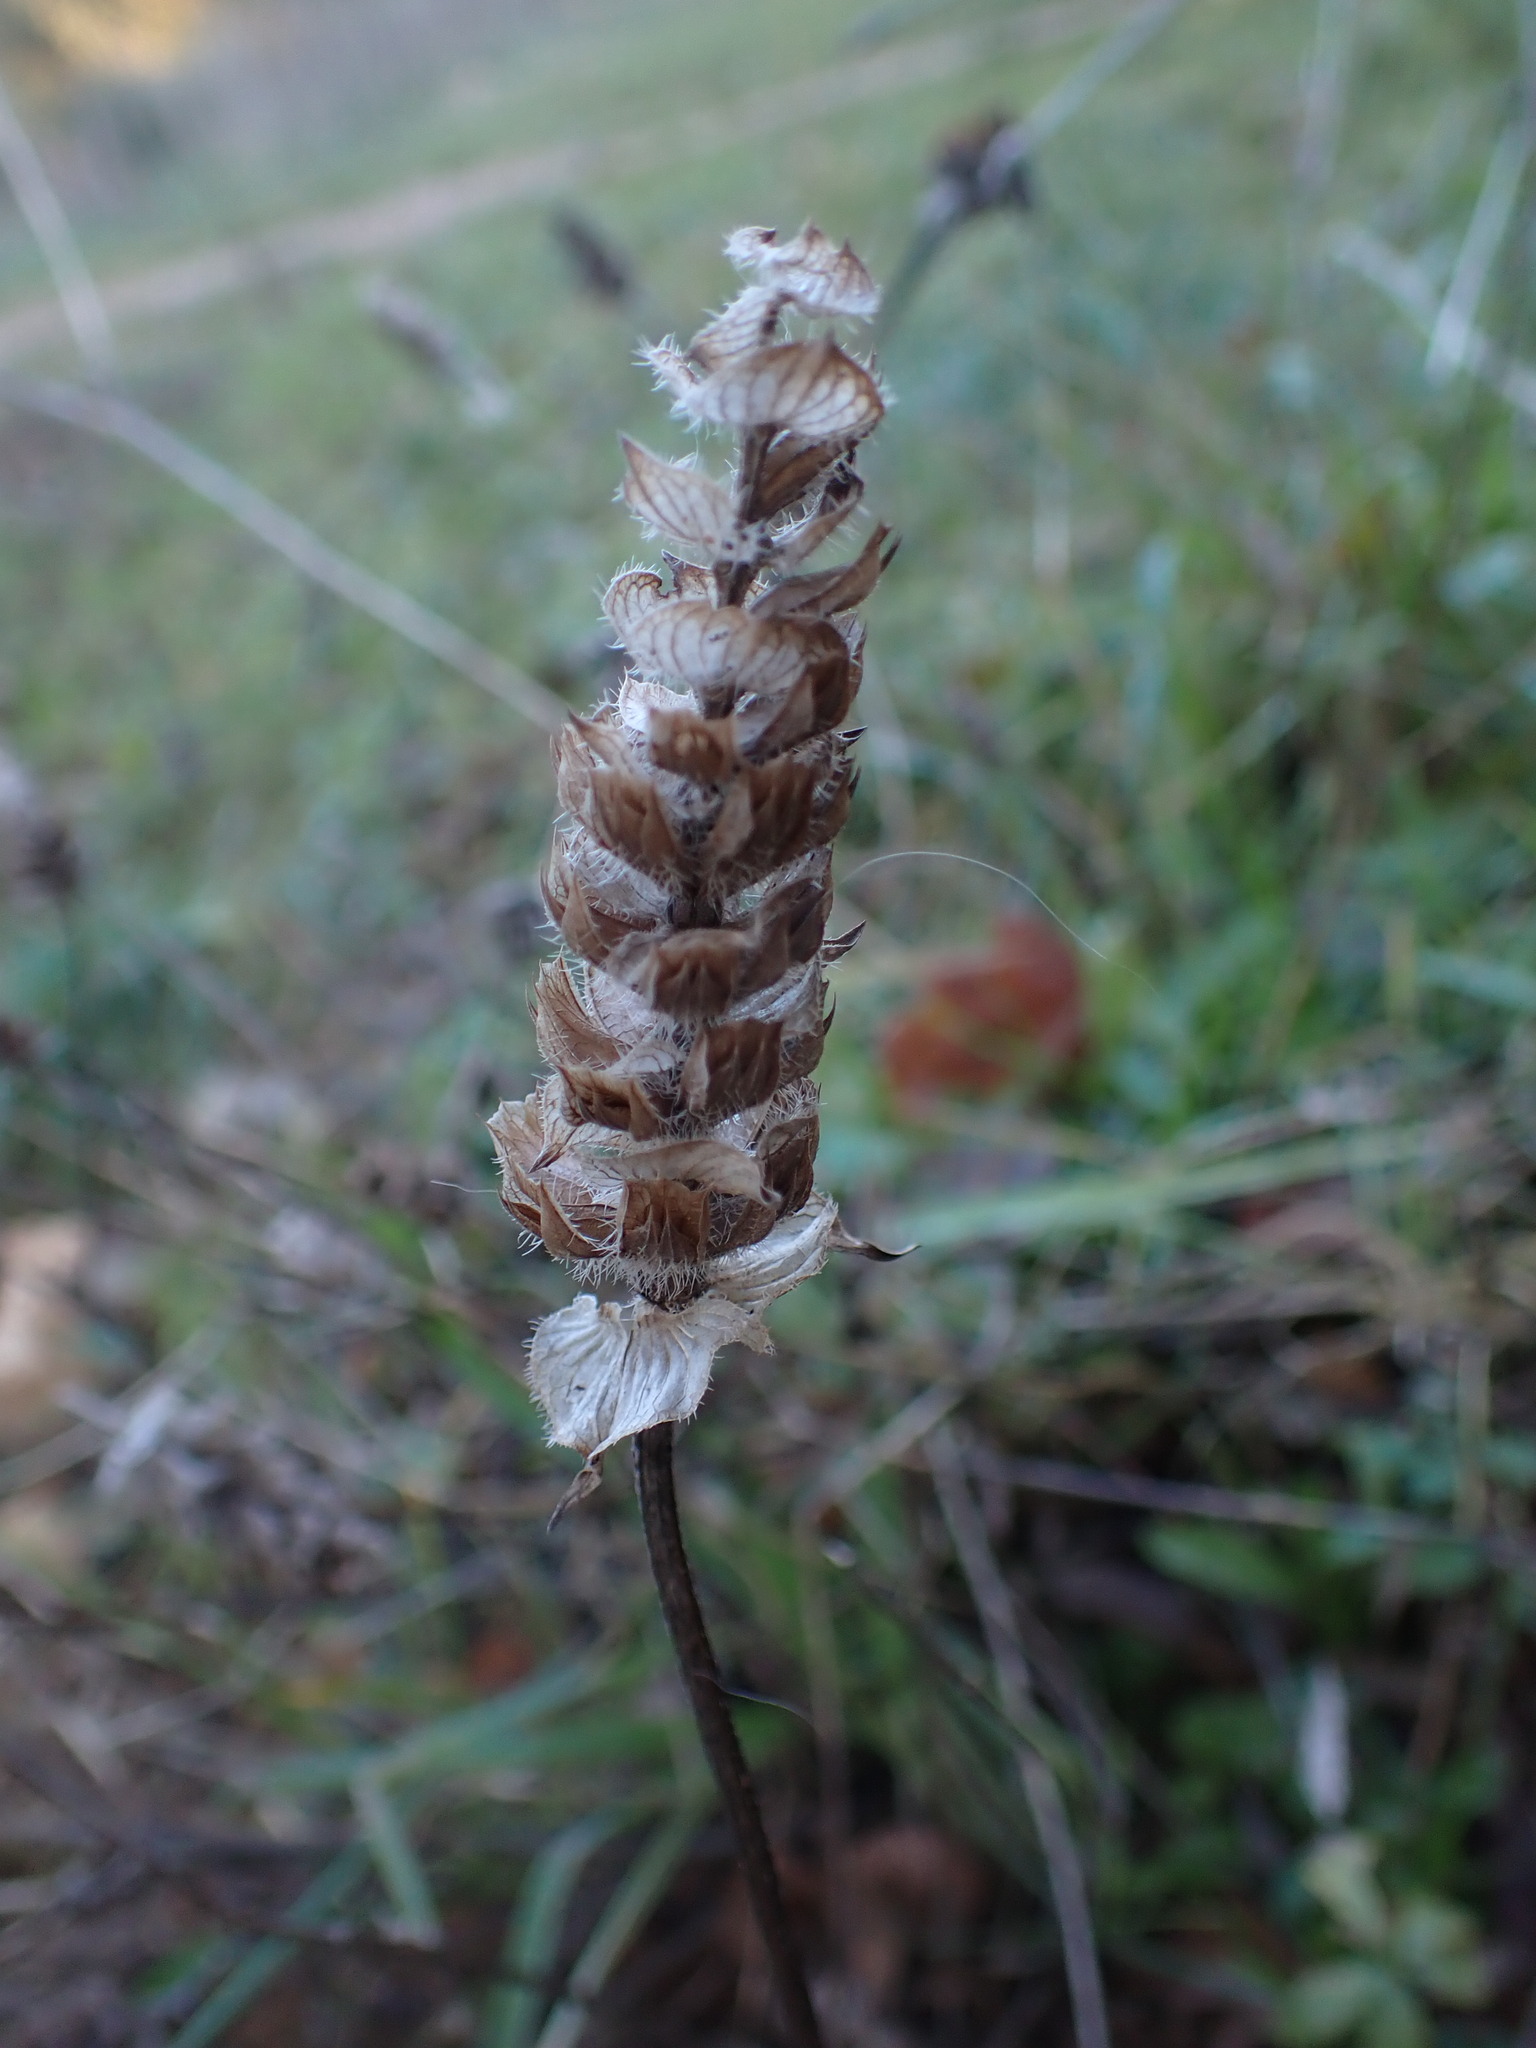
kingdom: Plantae
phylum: Tracheophyta
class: Magnoliopsida
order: Lamiales
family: Lamiaceae
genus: Prunella
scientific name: Prunella vulgaris
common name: Heal-all
